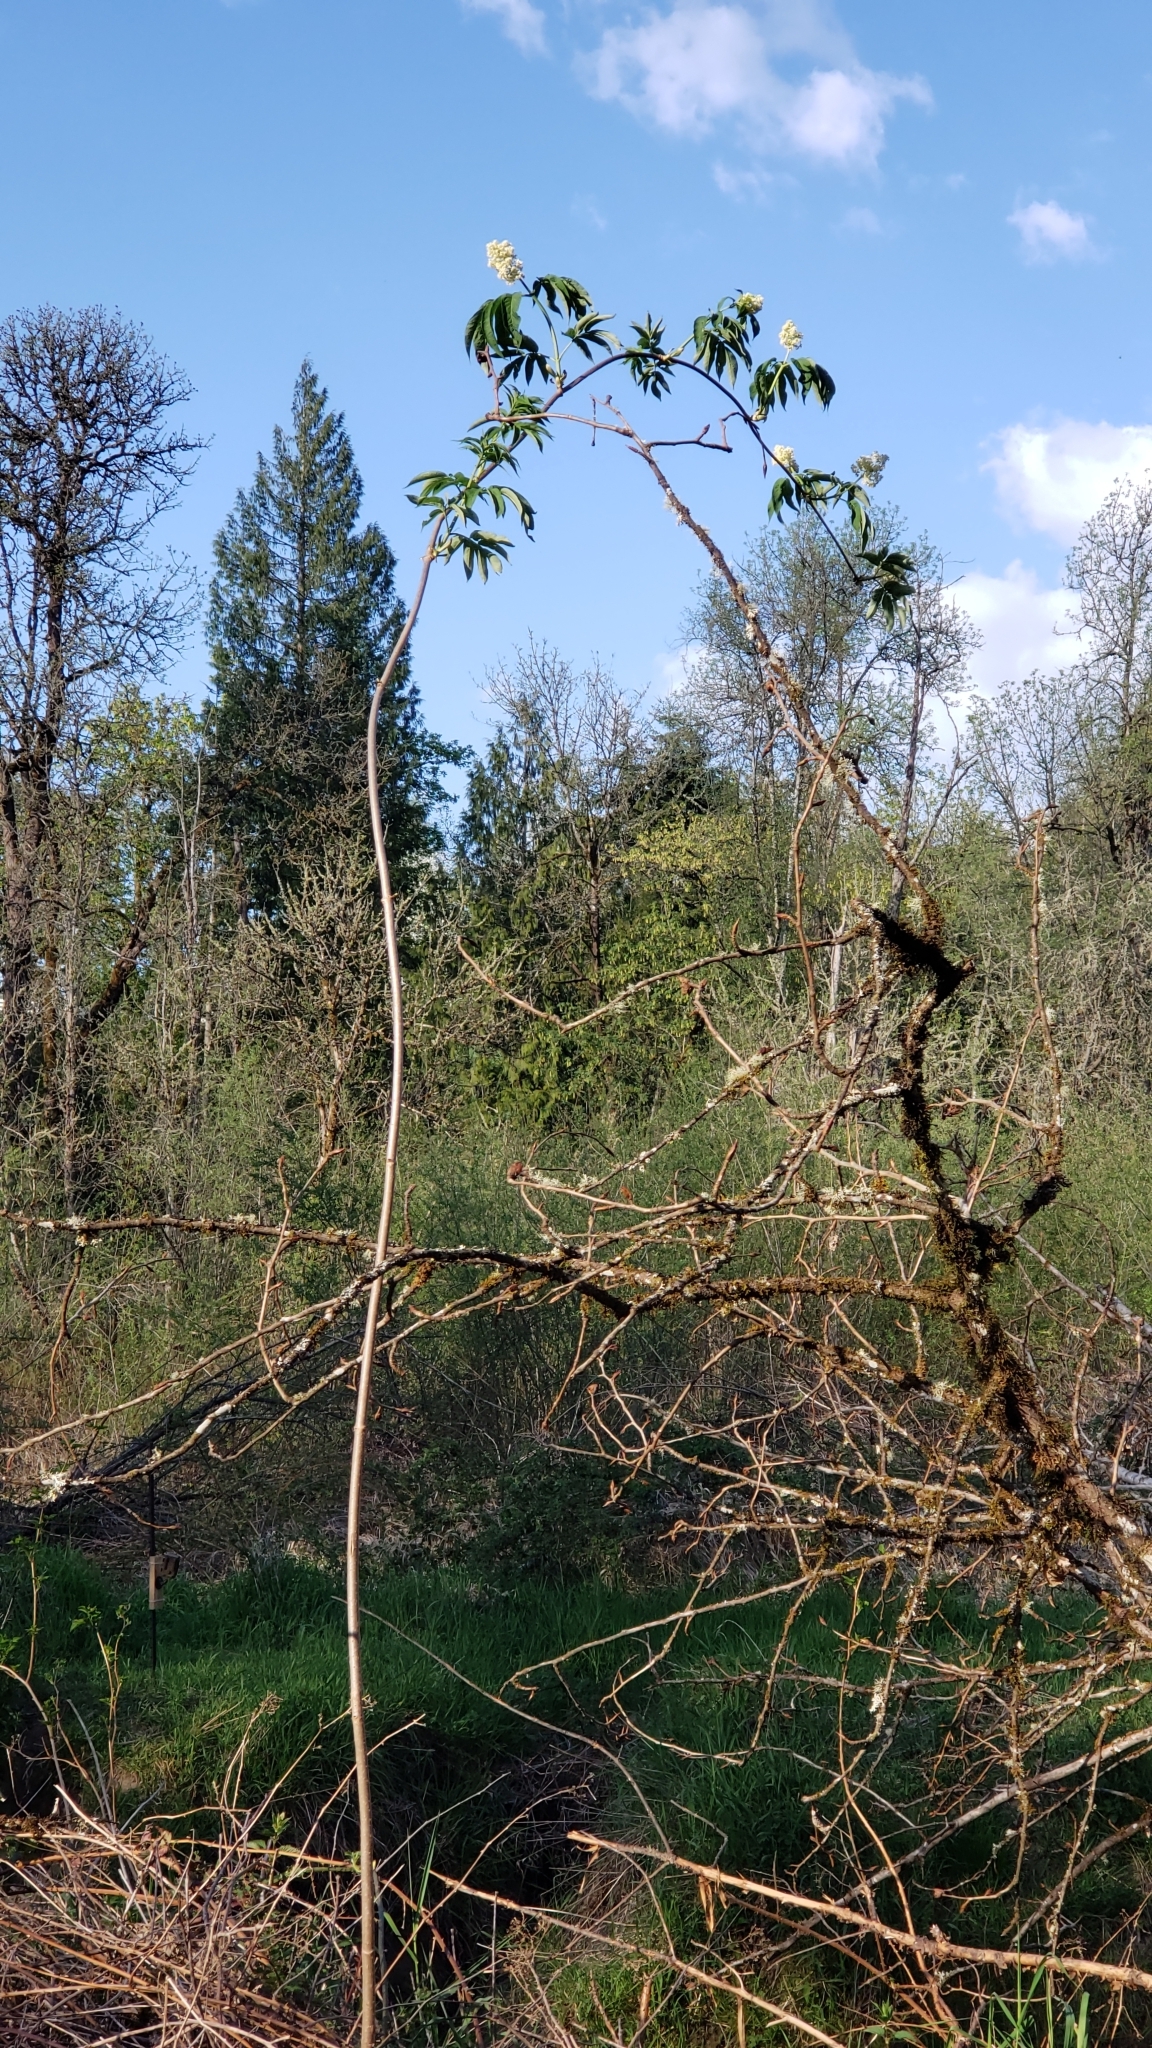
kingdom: Plantae
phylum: Tracheophyta
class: Magnoliopsida
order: Dipsacales
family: Viburnaceae
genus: Sambucus
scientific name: Sambucus racemosa
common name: Red-berried elder
